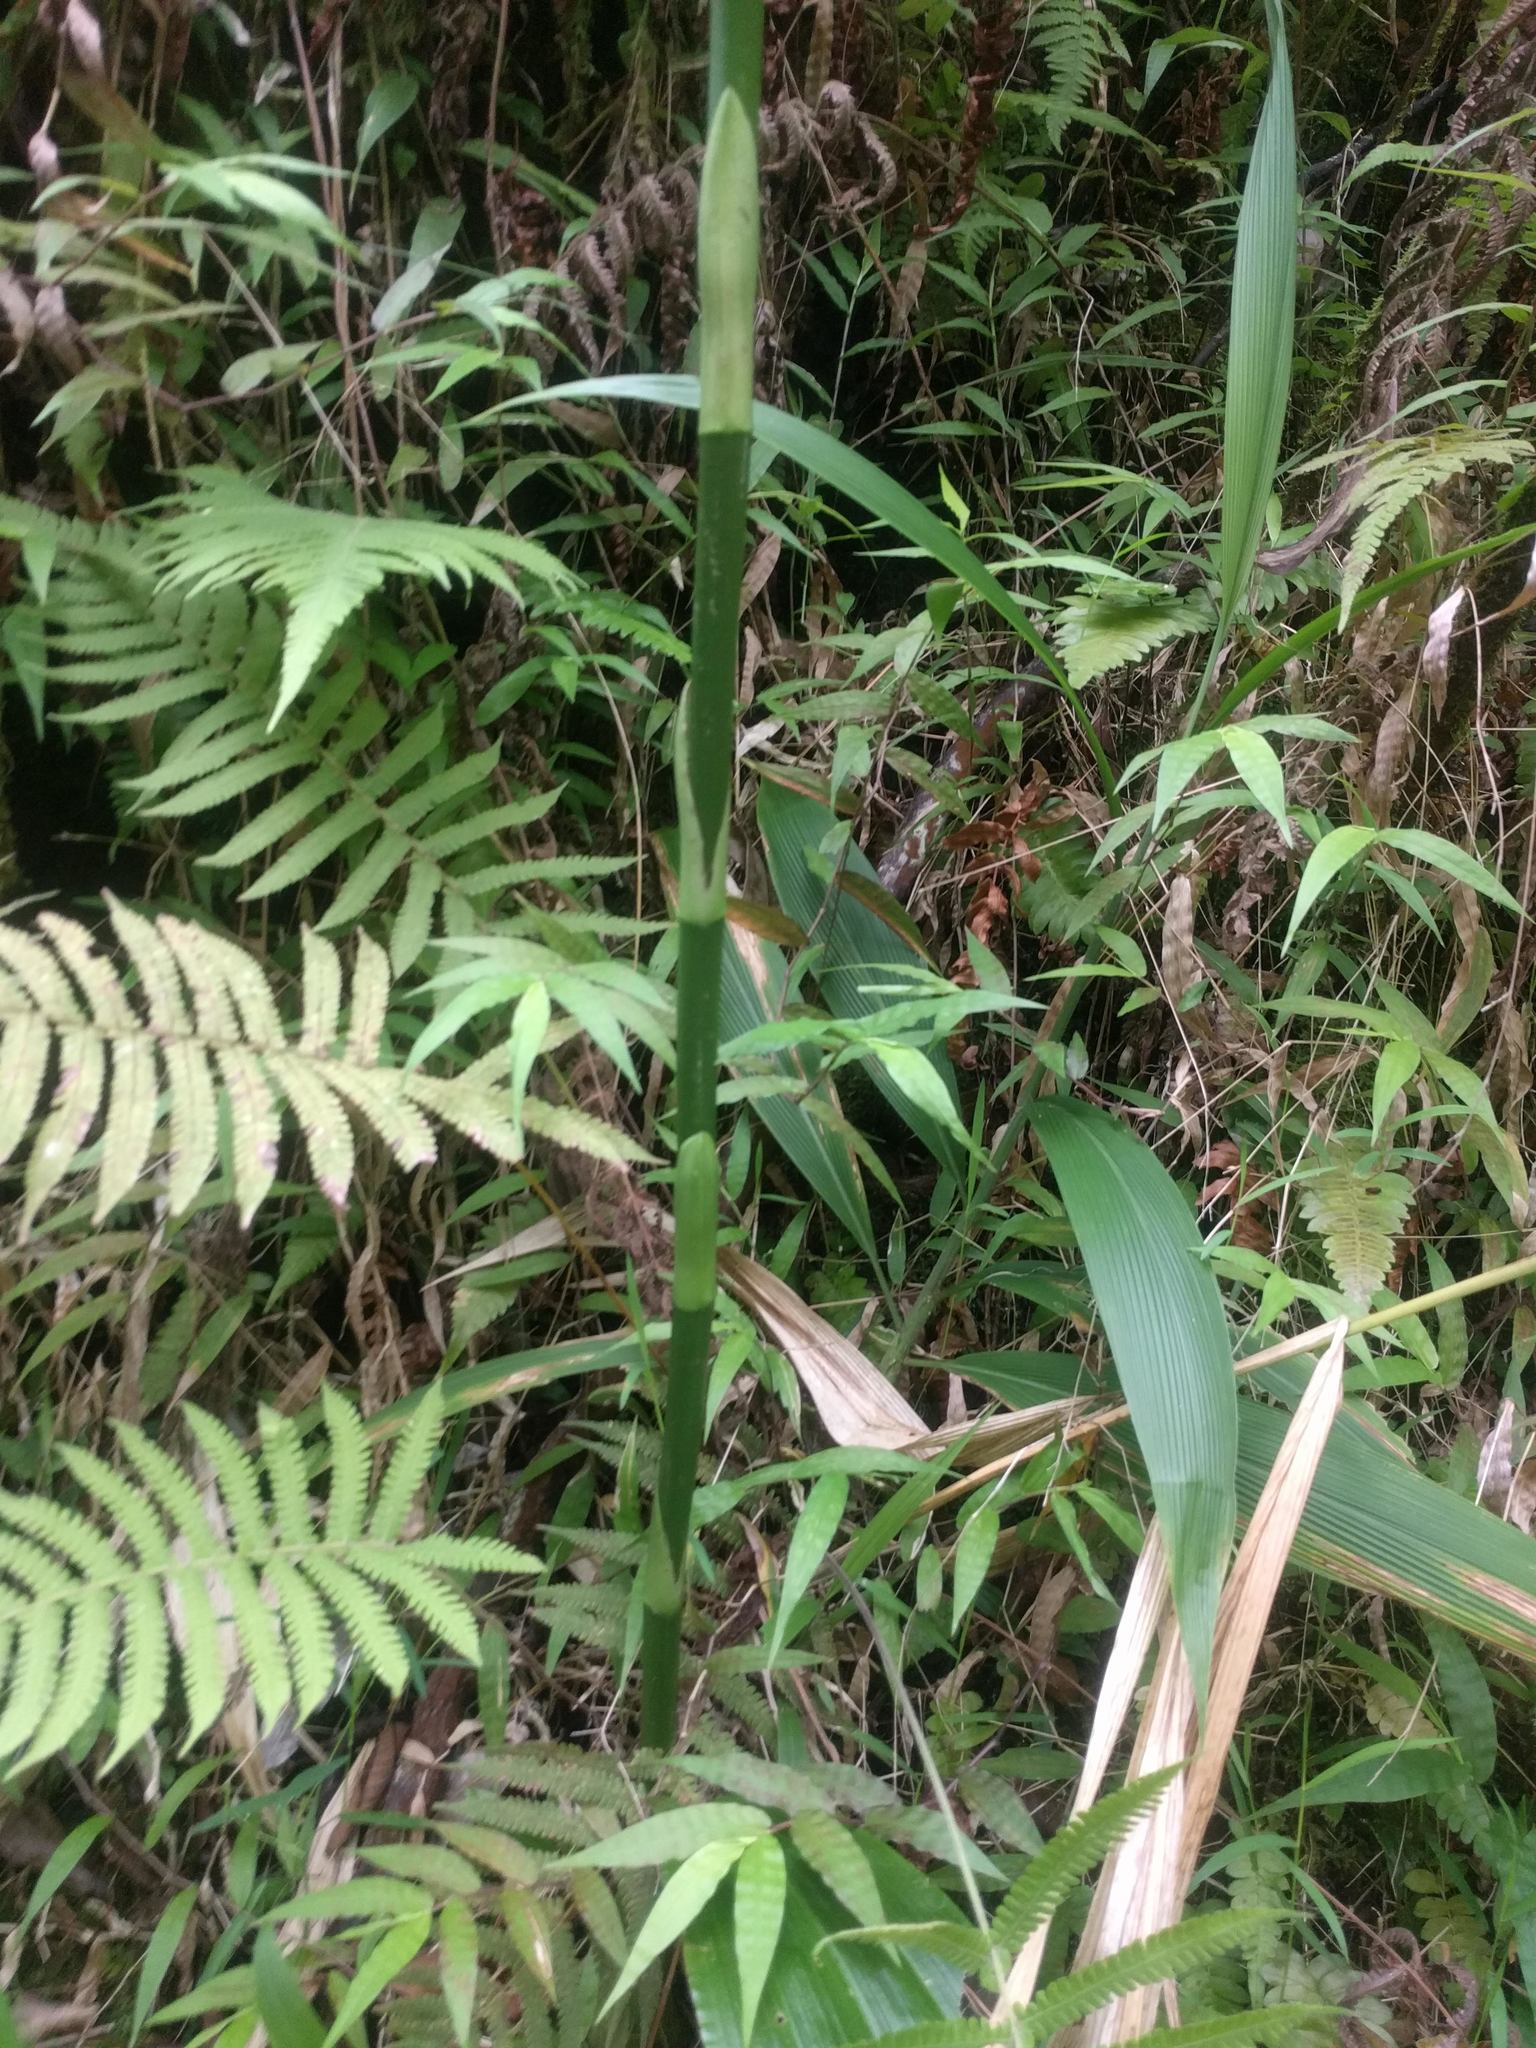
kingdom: Plantae
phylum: Tracheophyta
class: Liliopsida
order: Asparagales
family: Orchidaceae
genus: Calanthe
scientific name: Calanthe tankervilleae
